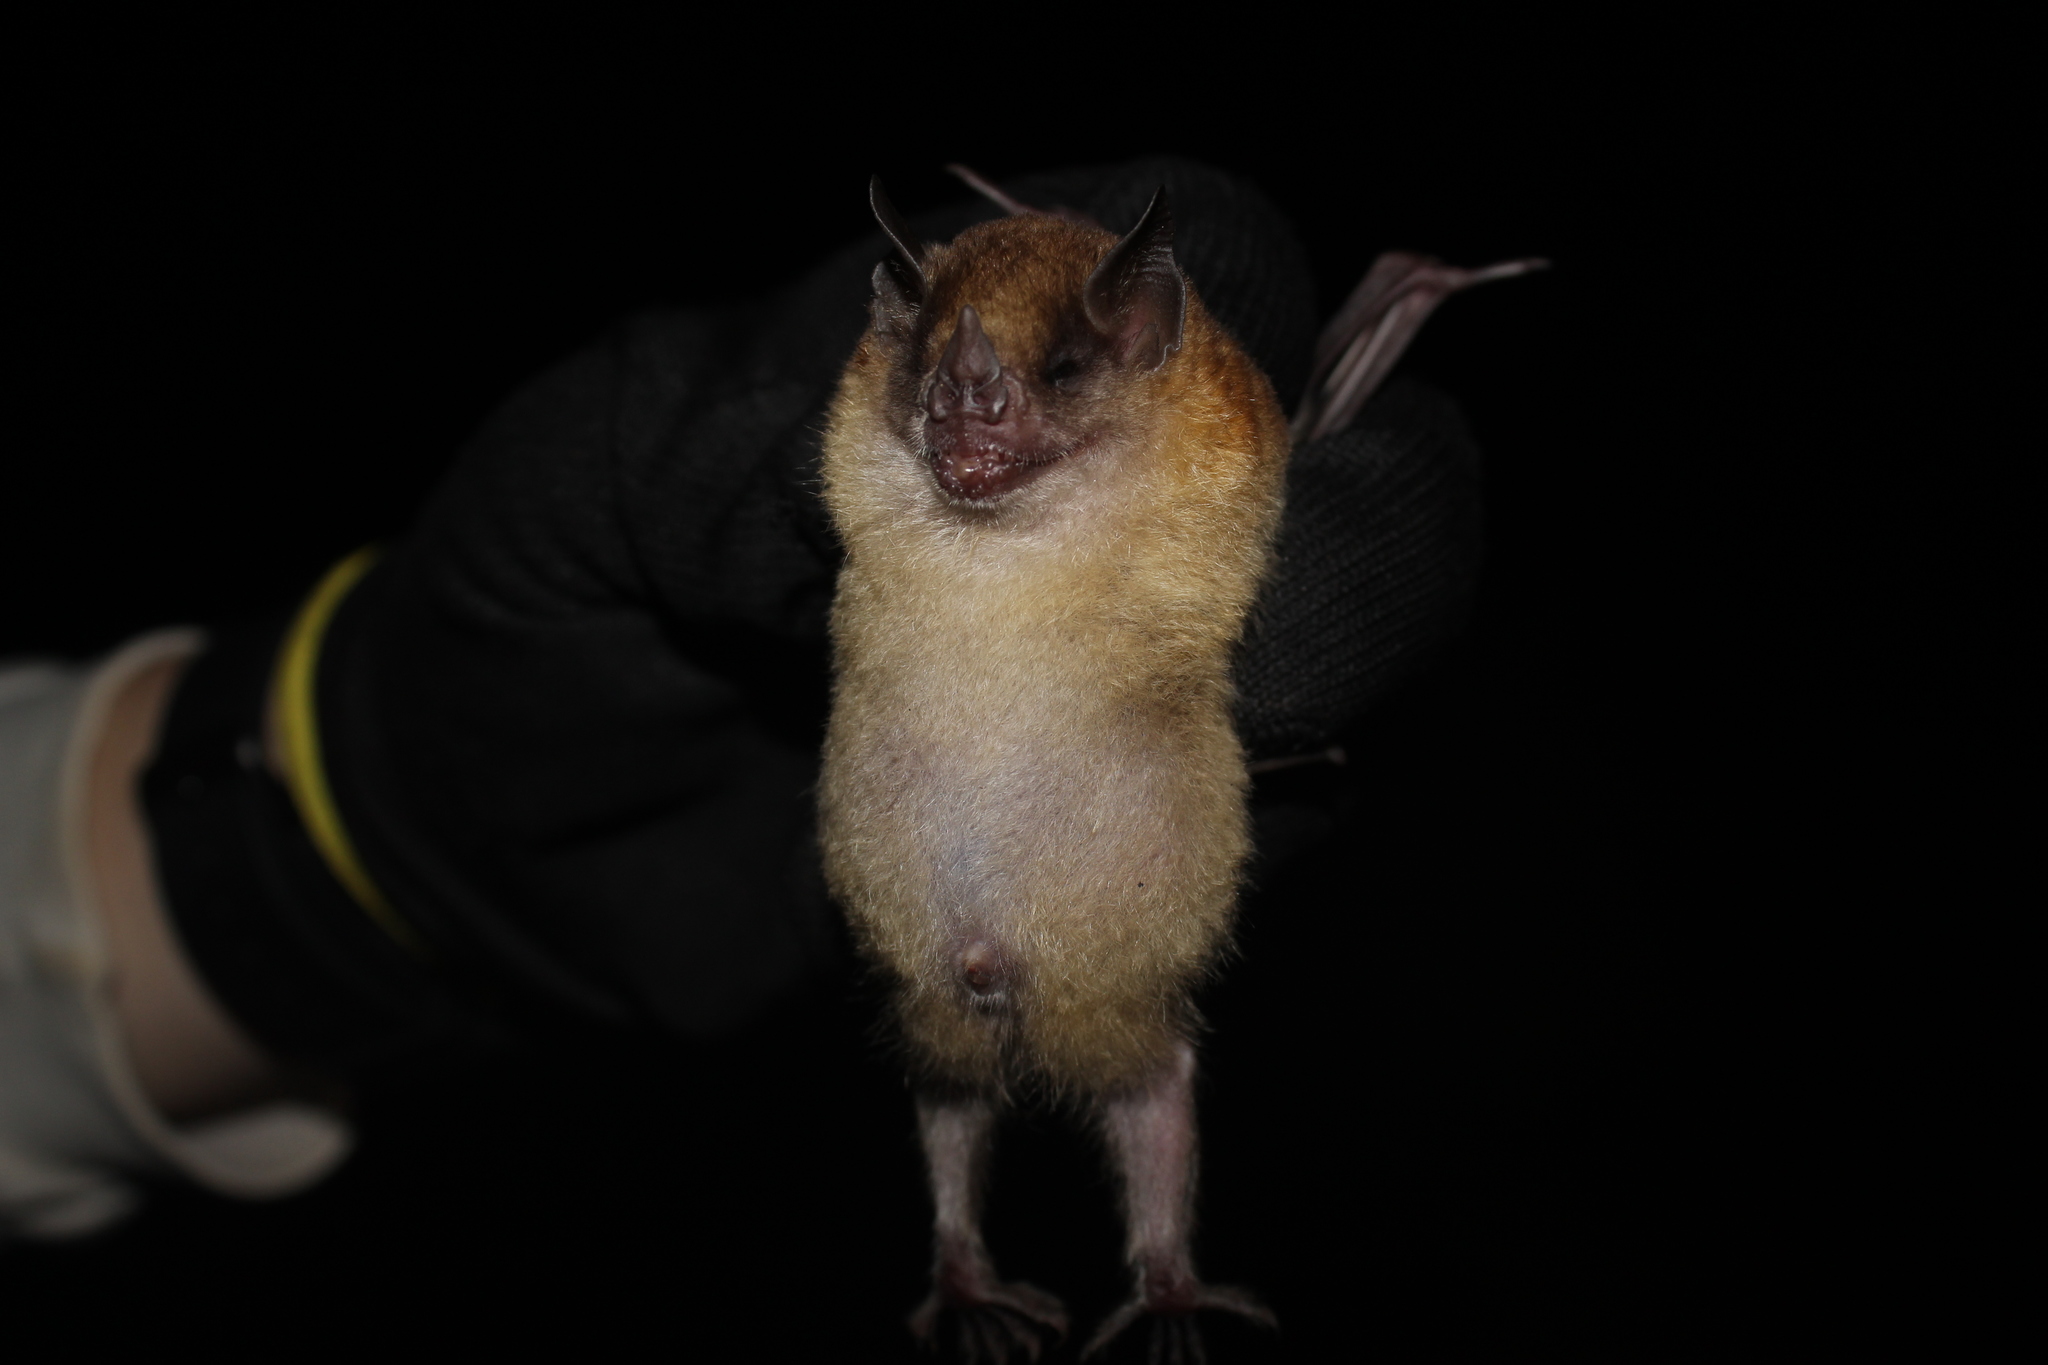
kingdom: Animalia
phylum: Chordata
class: Mammalia
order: Chiroptera
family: Phyllostomidae
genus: Sturnira
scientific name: Sturnira tildae
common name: Tilda's yellow-shouldered bat
